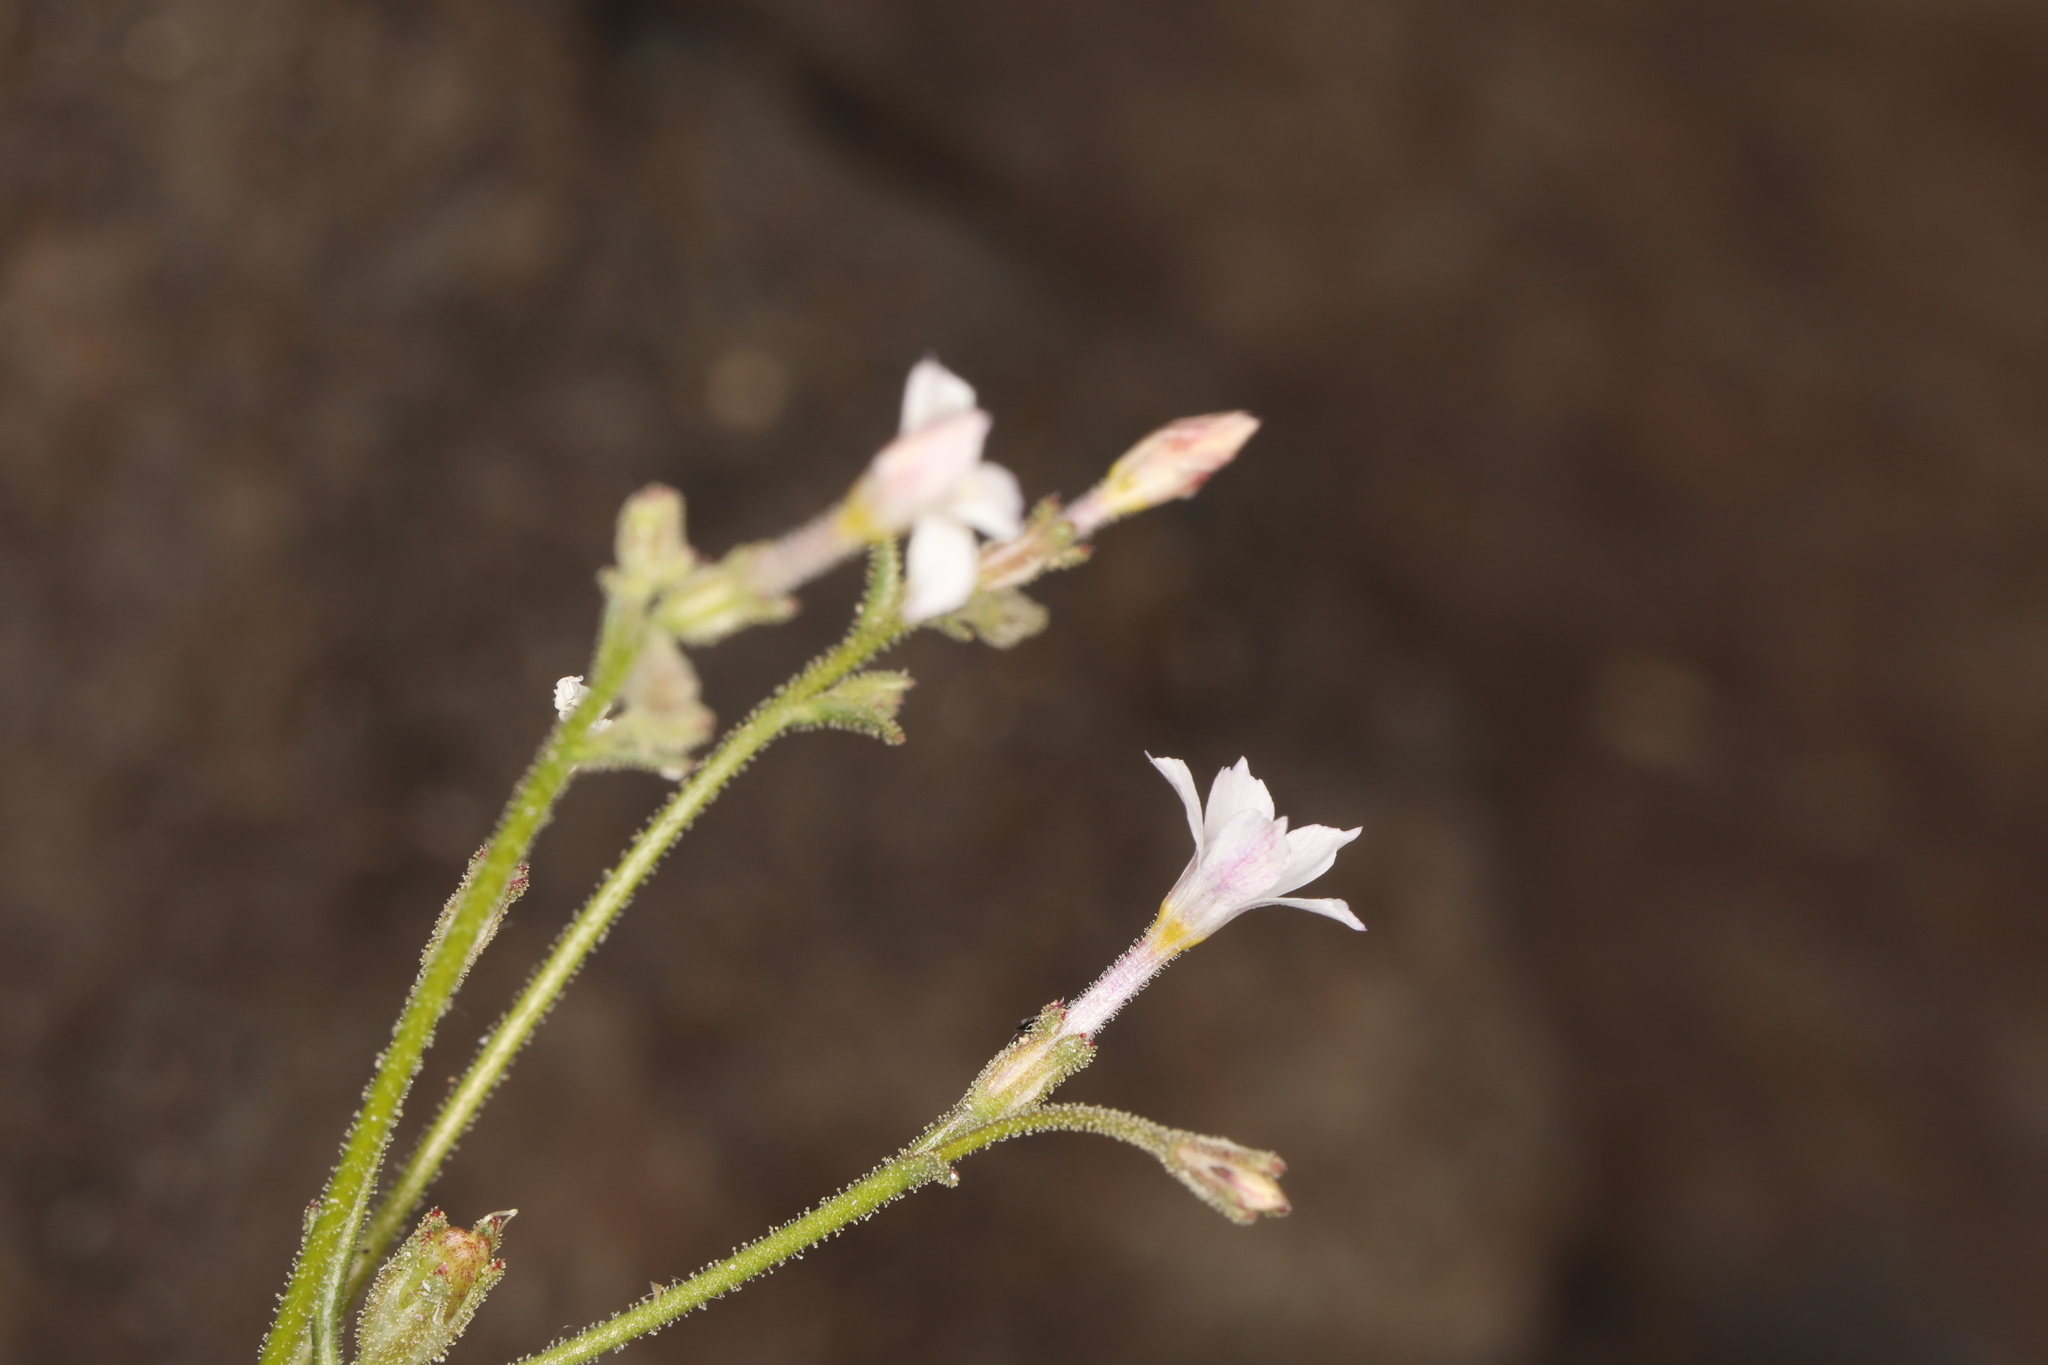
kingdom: Plantae
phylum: Tracheophyta
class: Magnoliopsida
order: Ericales
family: Polemoniaceae
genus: Aliciella
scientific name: Aliciella hutchinsifolia
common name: Desert pale gilia
